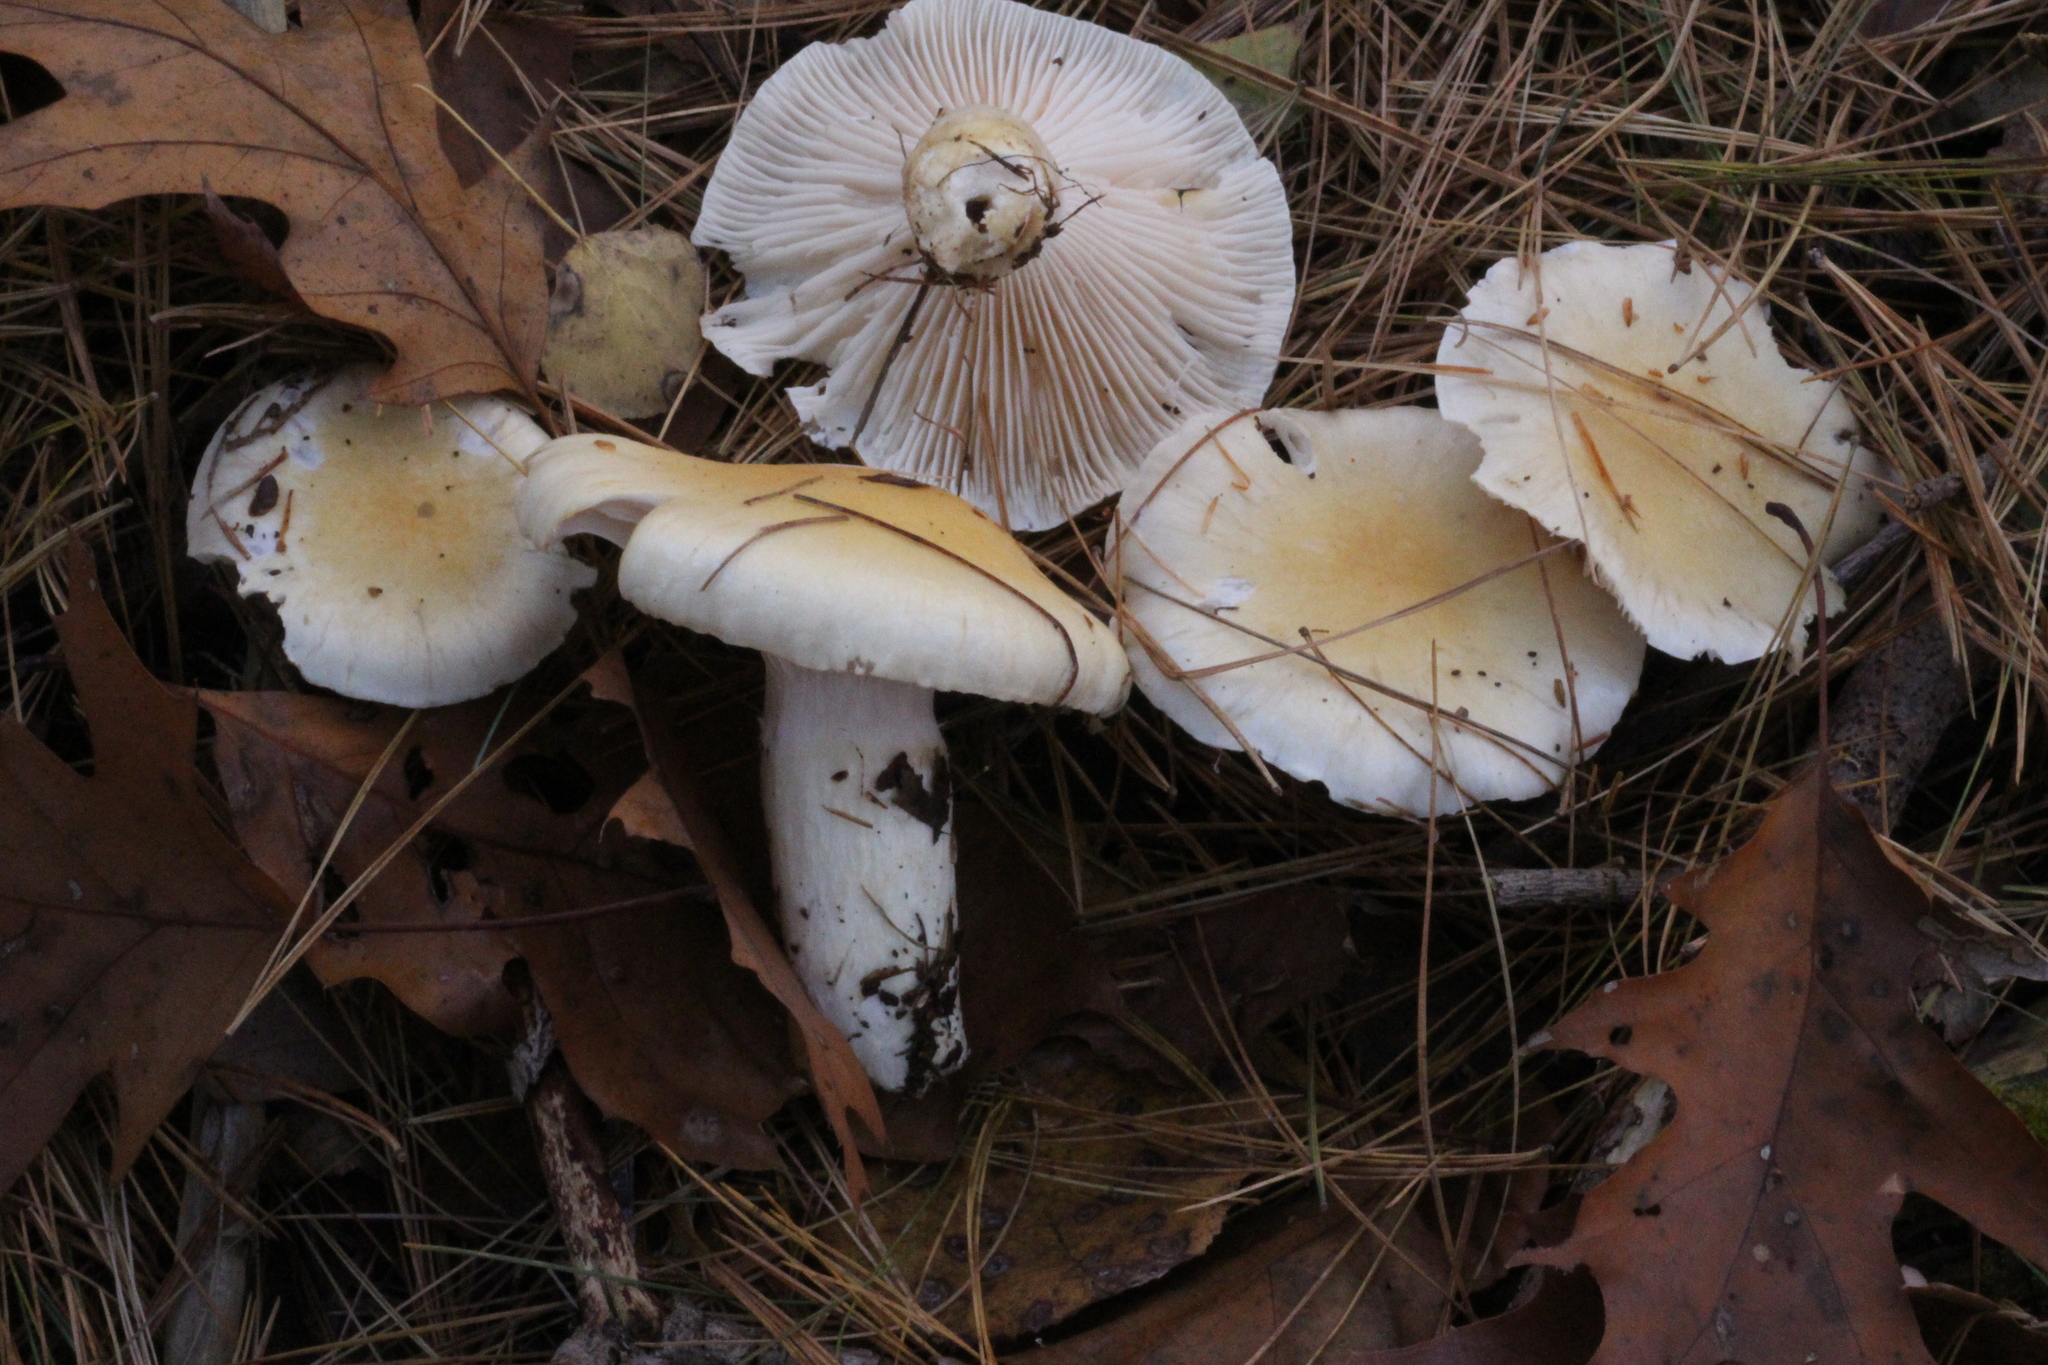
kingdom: Fungi
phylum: Basidiomycota
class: Agaricomycetes
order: Agaricales
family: Hygrophoraceae
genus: Hygrophorus
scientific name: Hygrophorus ligatus
